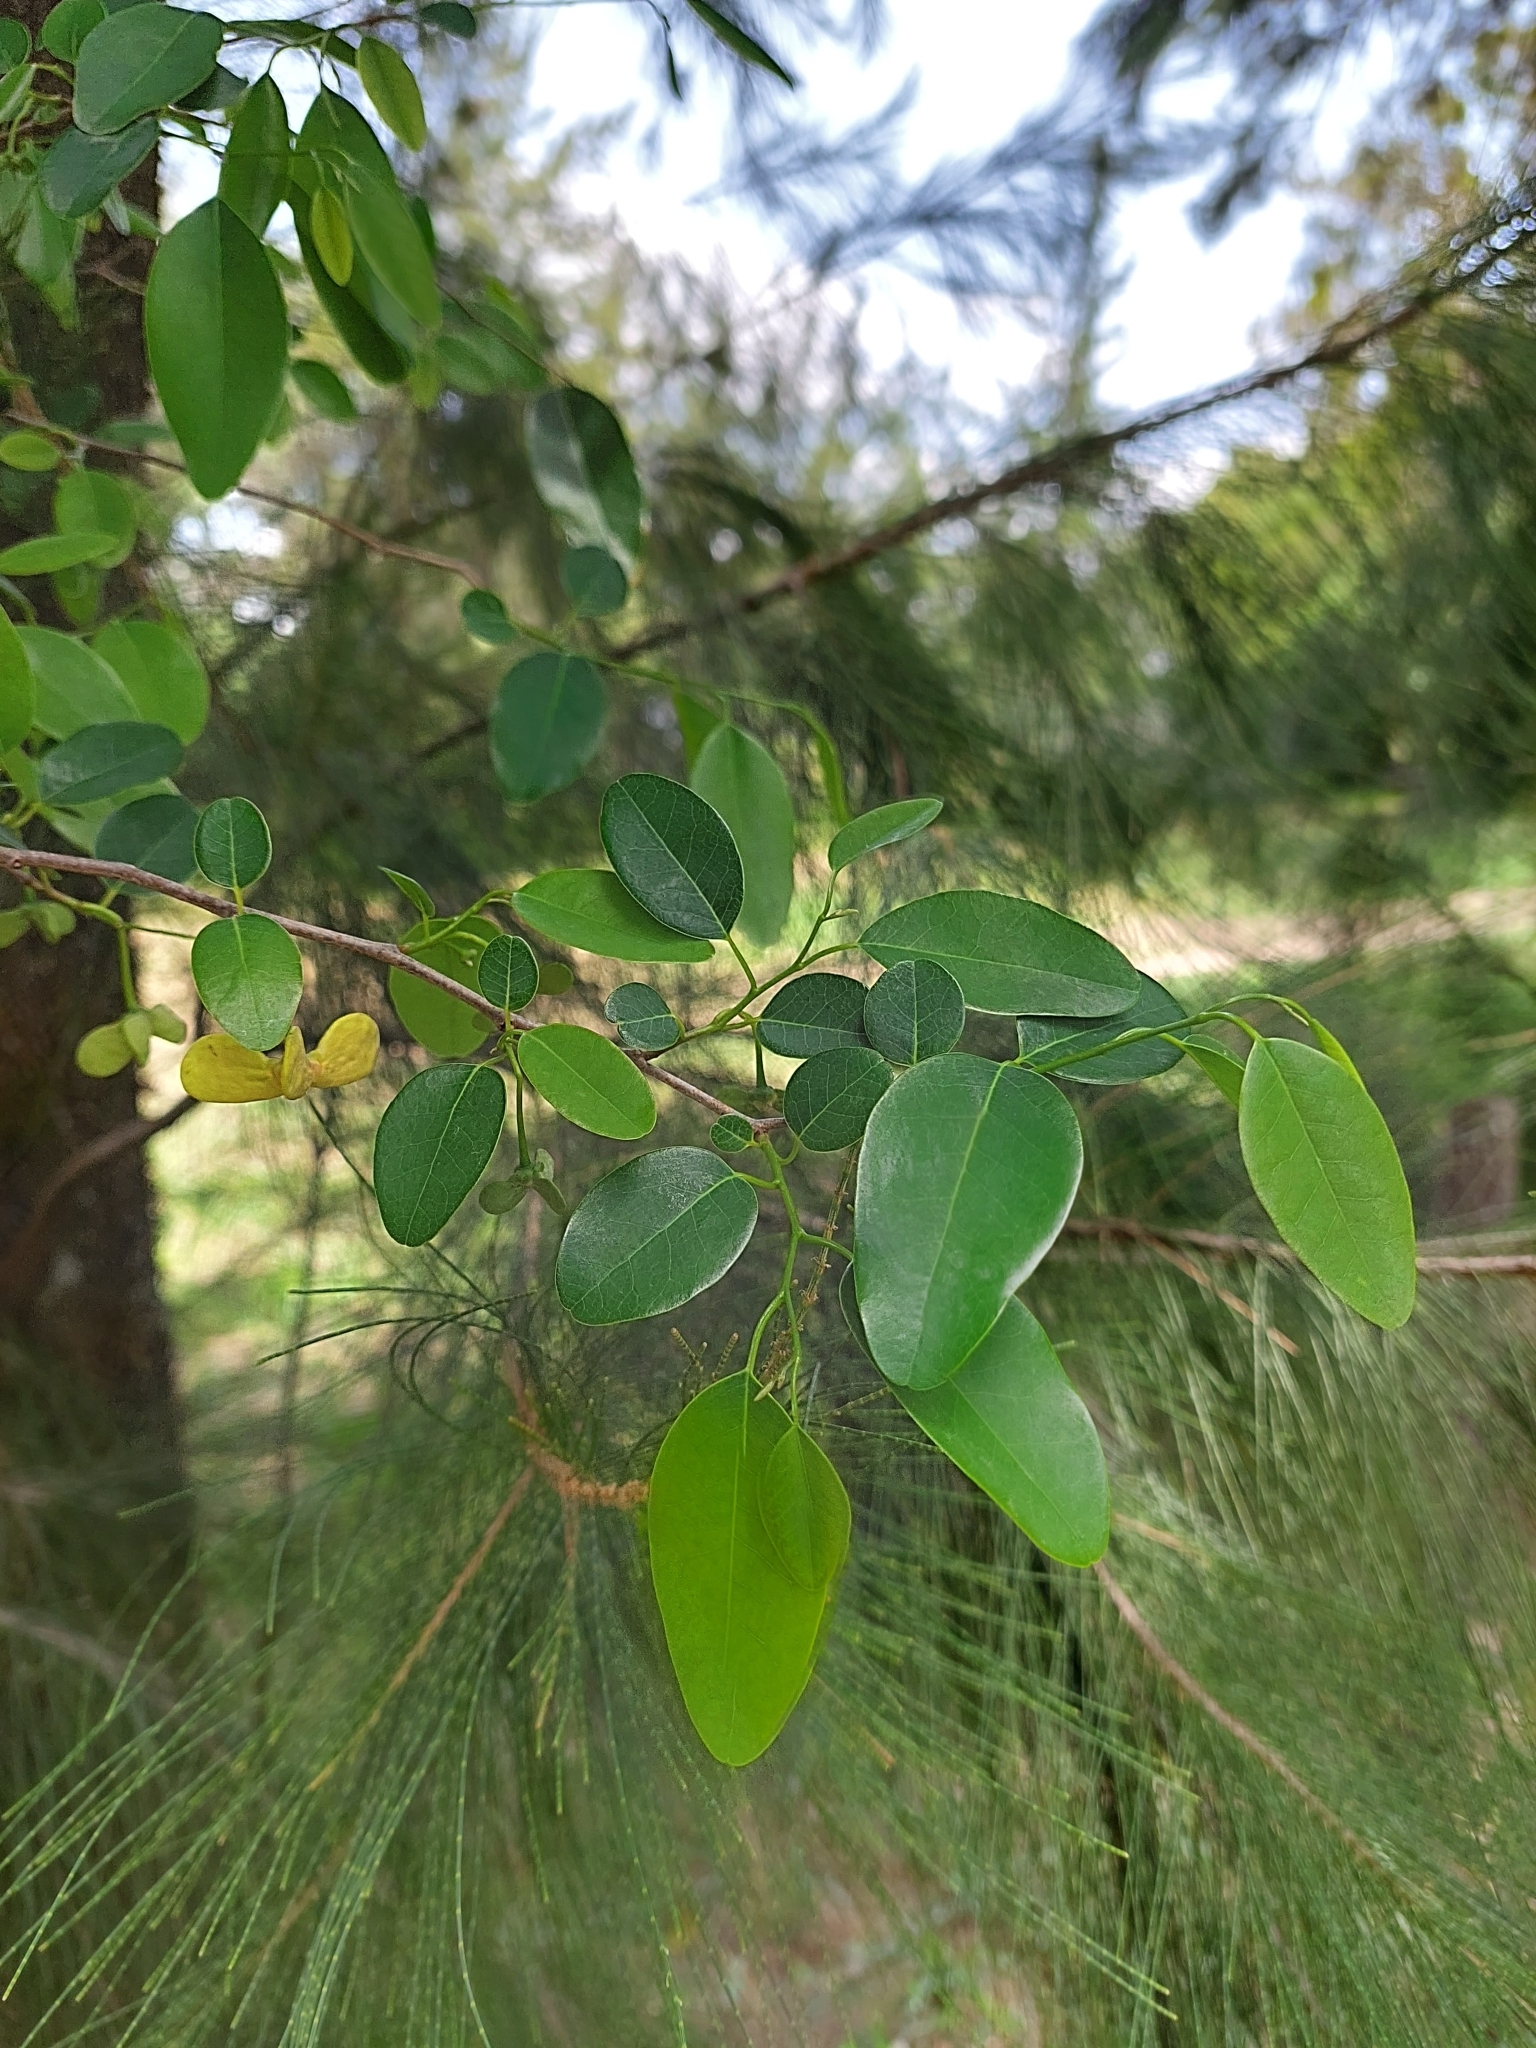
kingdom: Plantae
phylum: Tracheophyta
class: Magnoliopsida
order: Magnoliales
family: Annonaceae
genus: Annona
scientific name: Annona emarginata
